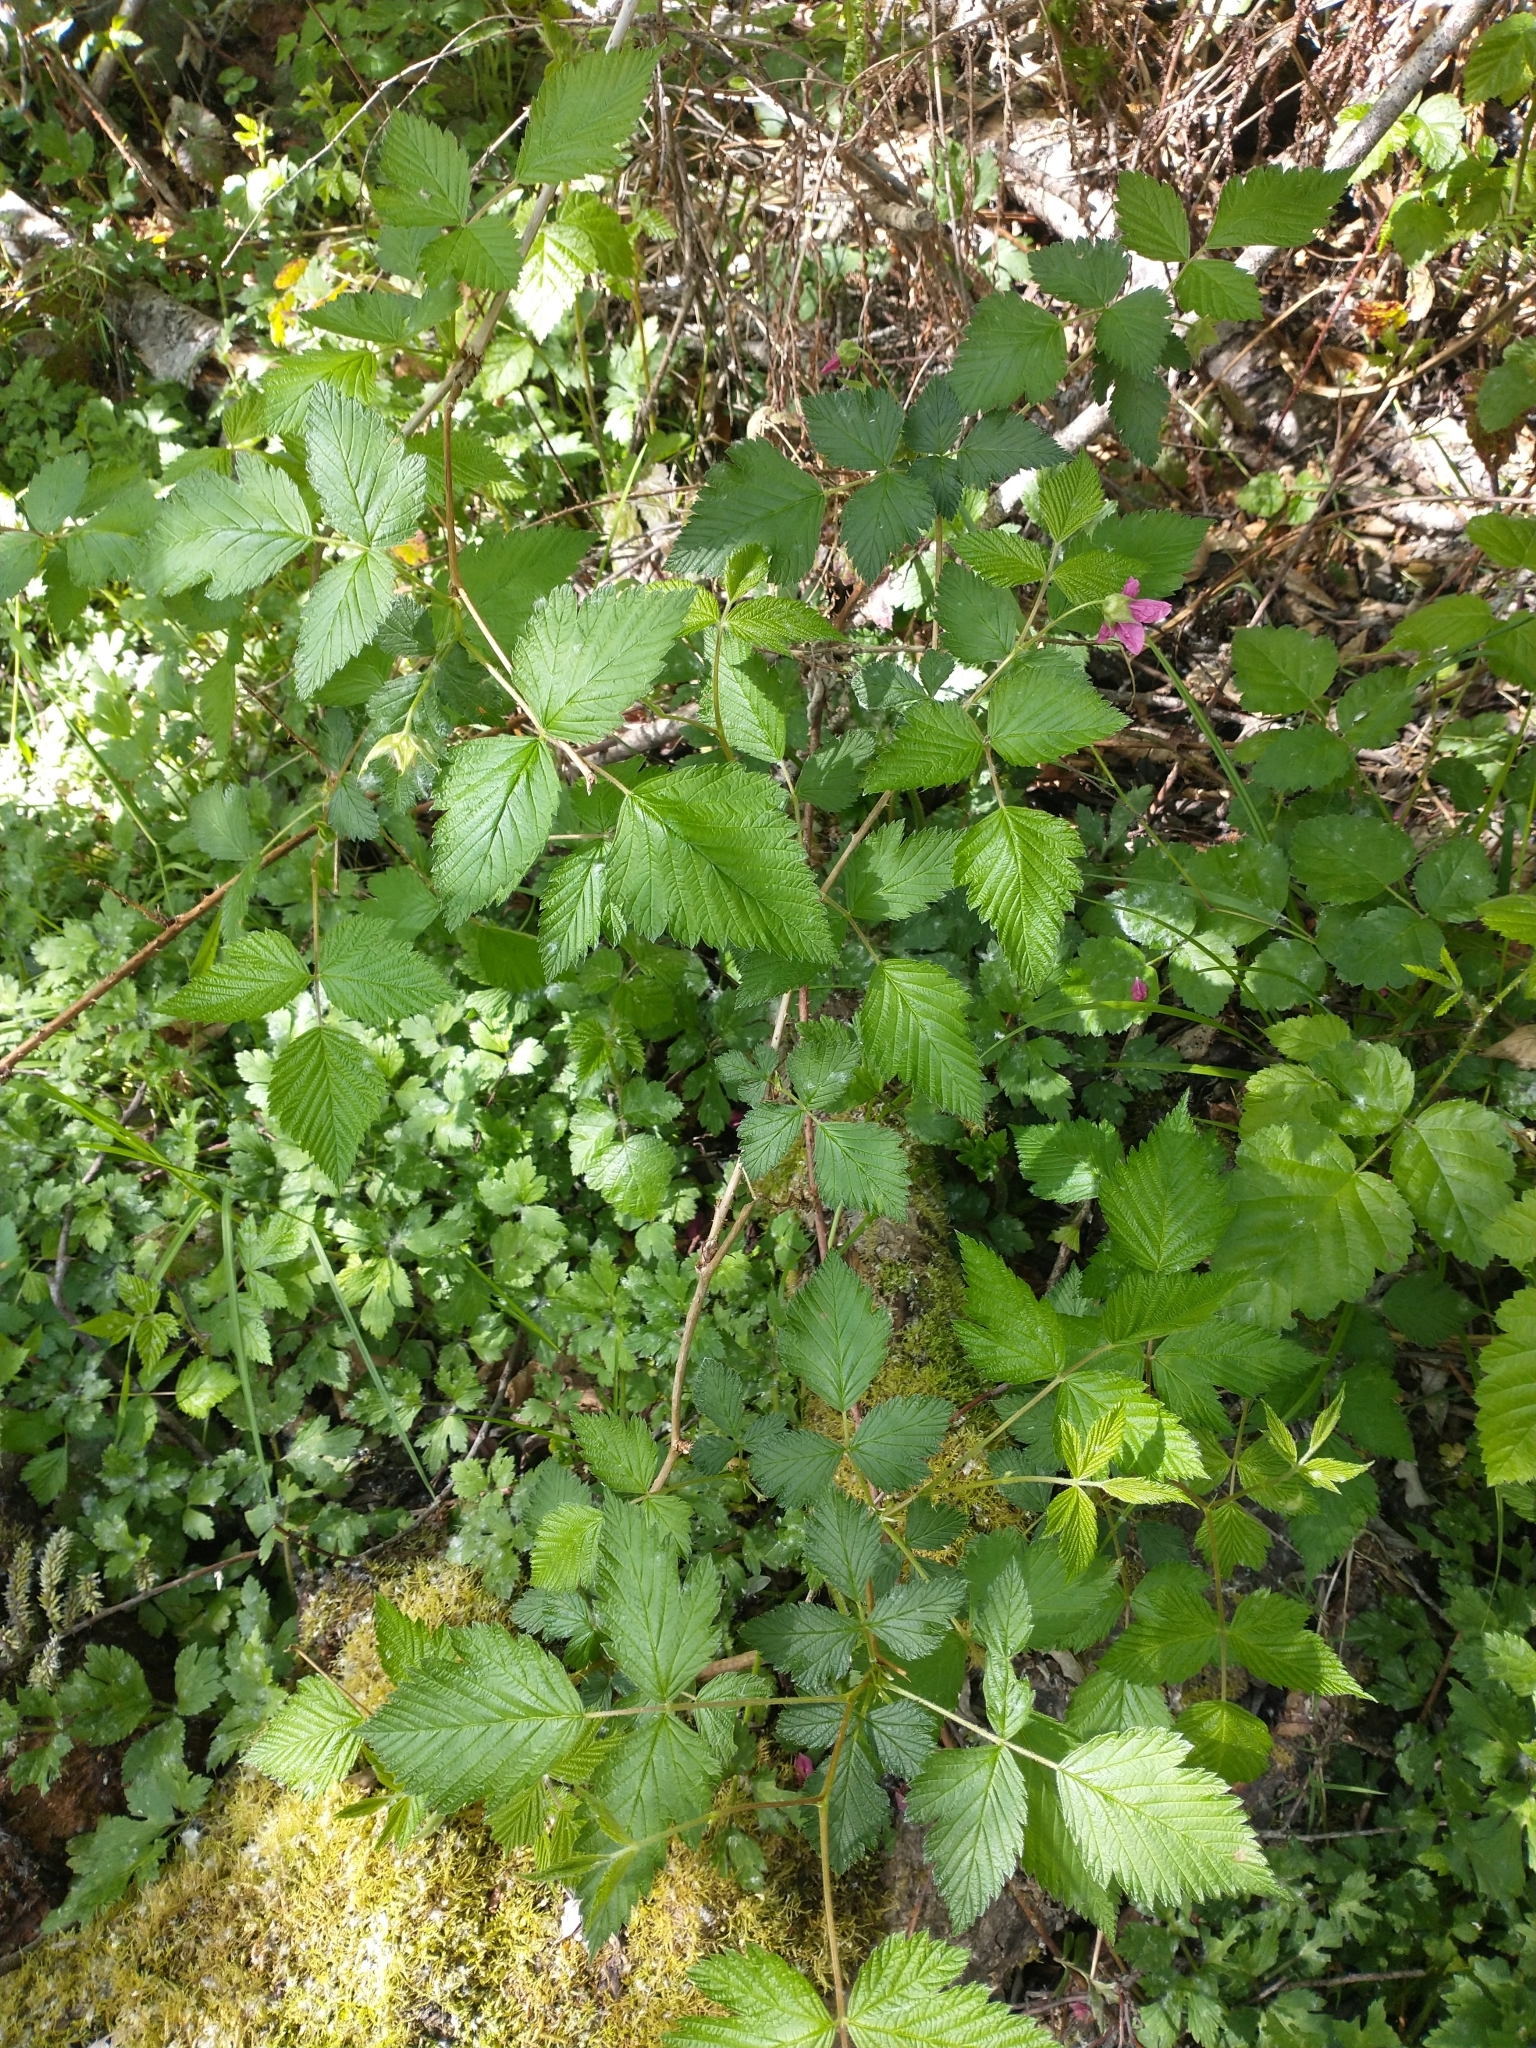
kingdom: Plantae
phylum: Tracheophyta
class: Magnoliopsida
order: Rosales
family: Rosaceae
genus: Rubus
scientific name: Rubus spectabilis
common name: Salmonberry
